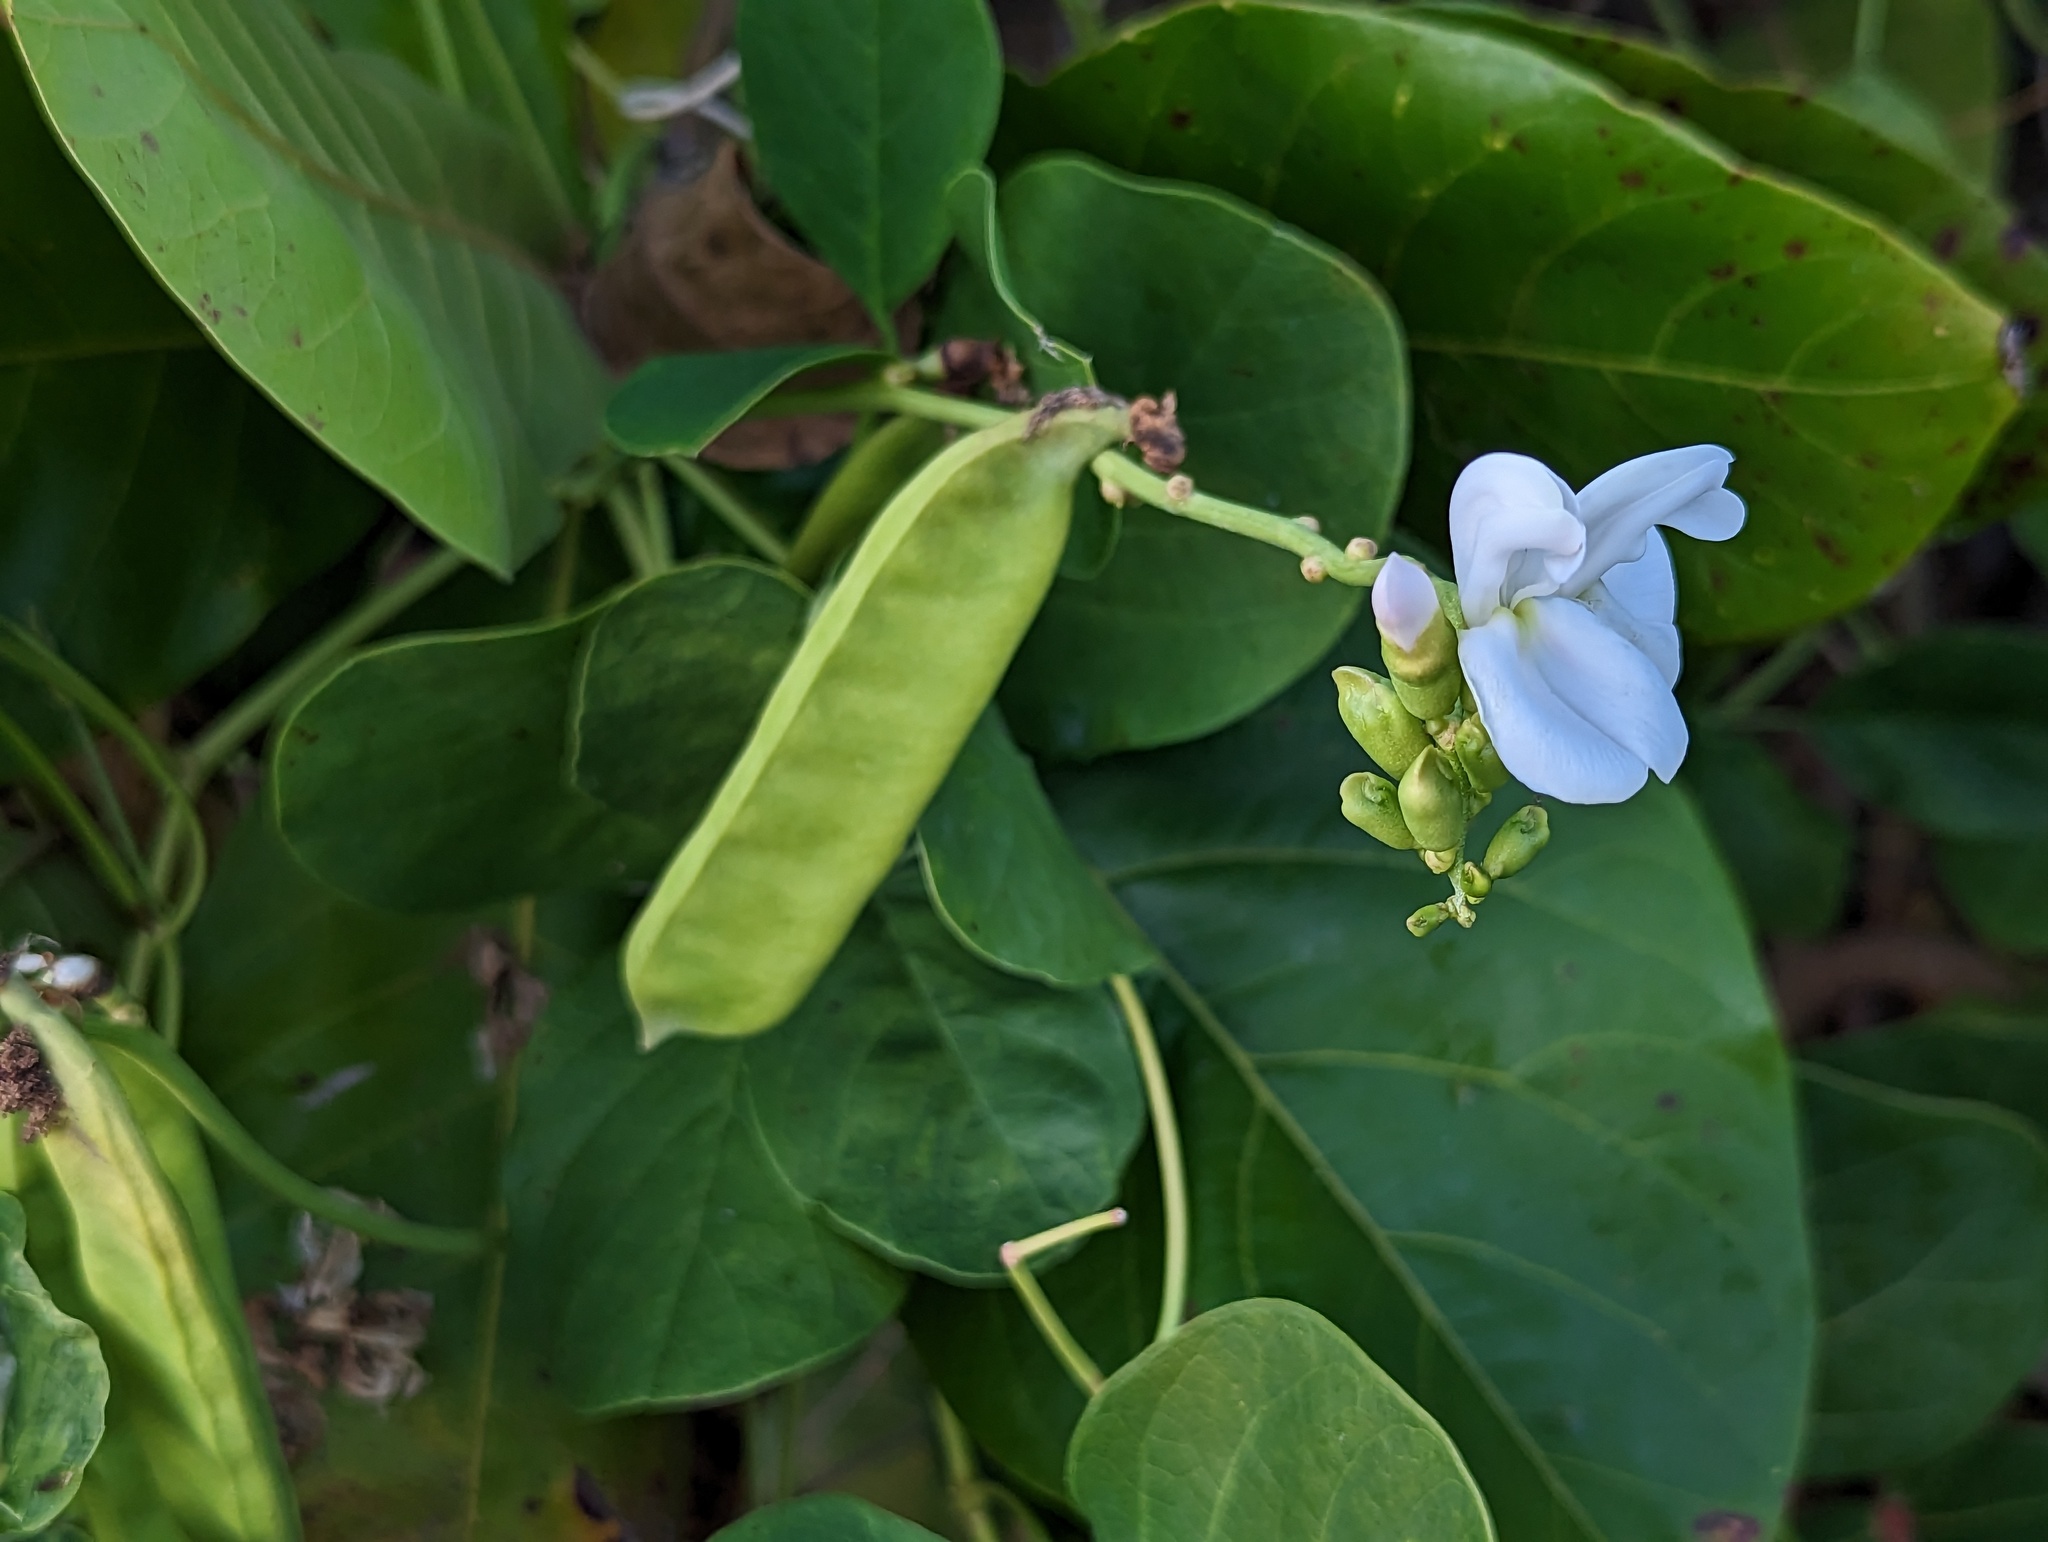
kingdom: Plantae
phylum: Tracheophyta
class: Magnoliopsida
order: Fabales
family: Fabaceae
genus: Canavalia
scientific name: Canavalia rosea
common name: Beach-bean
